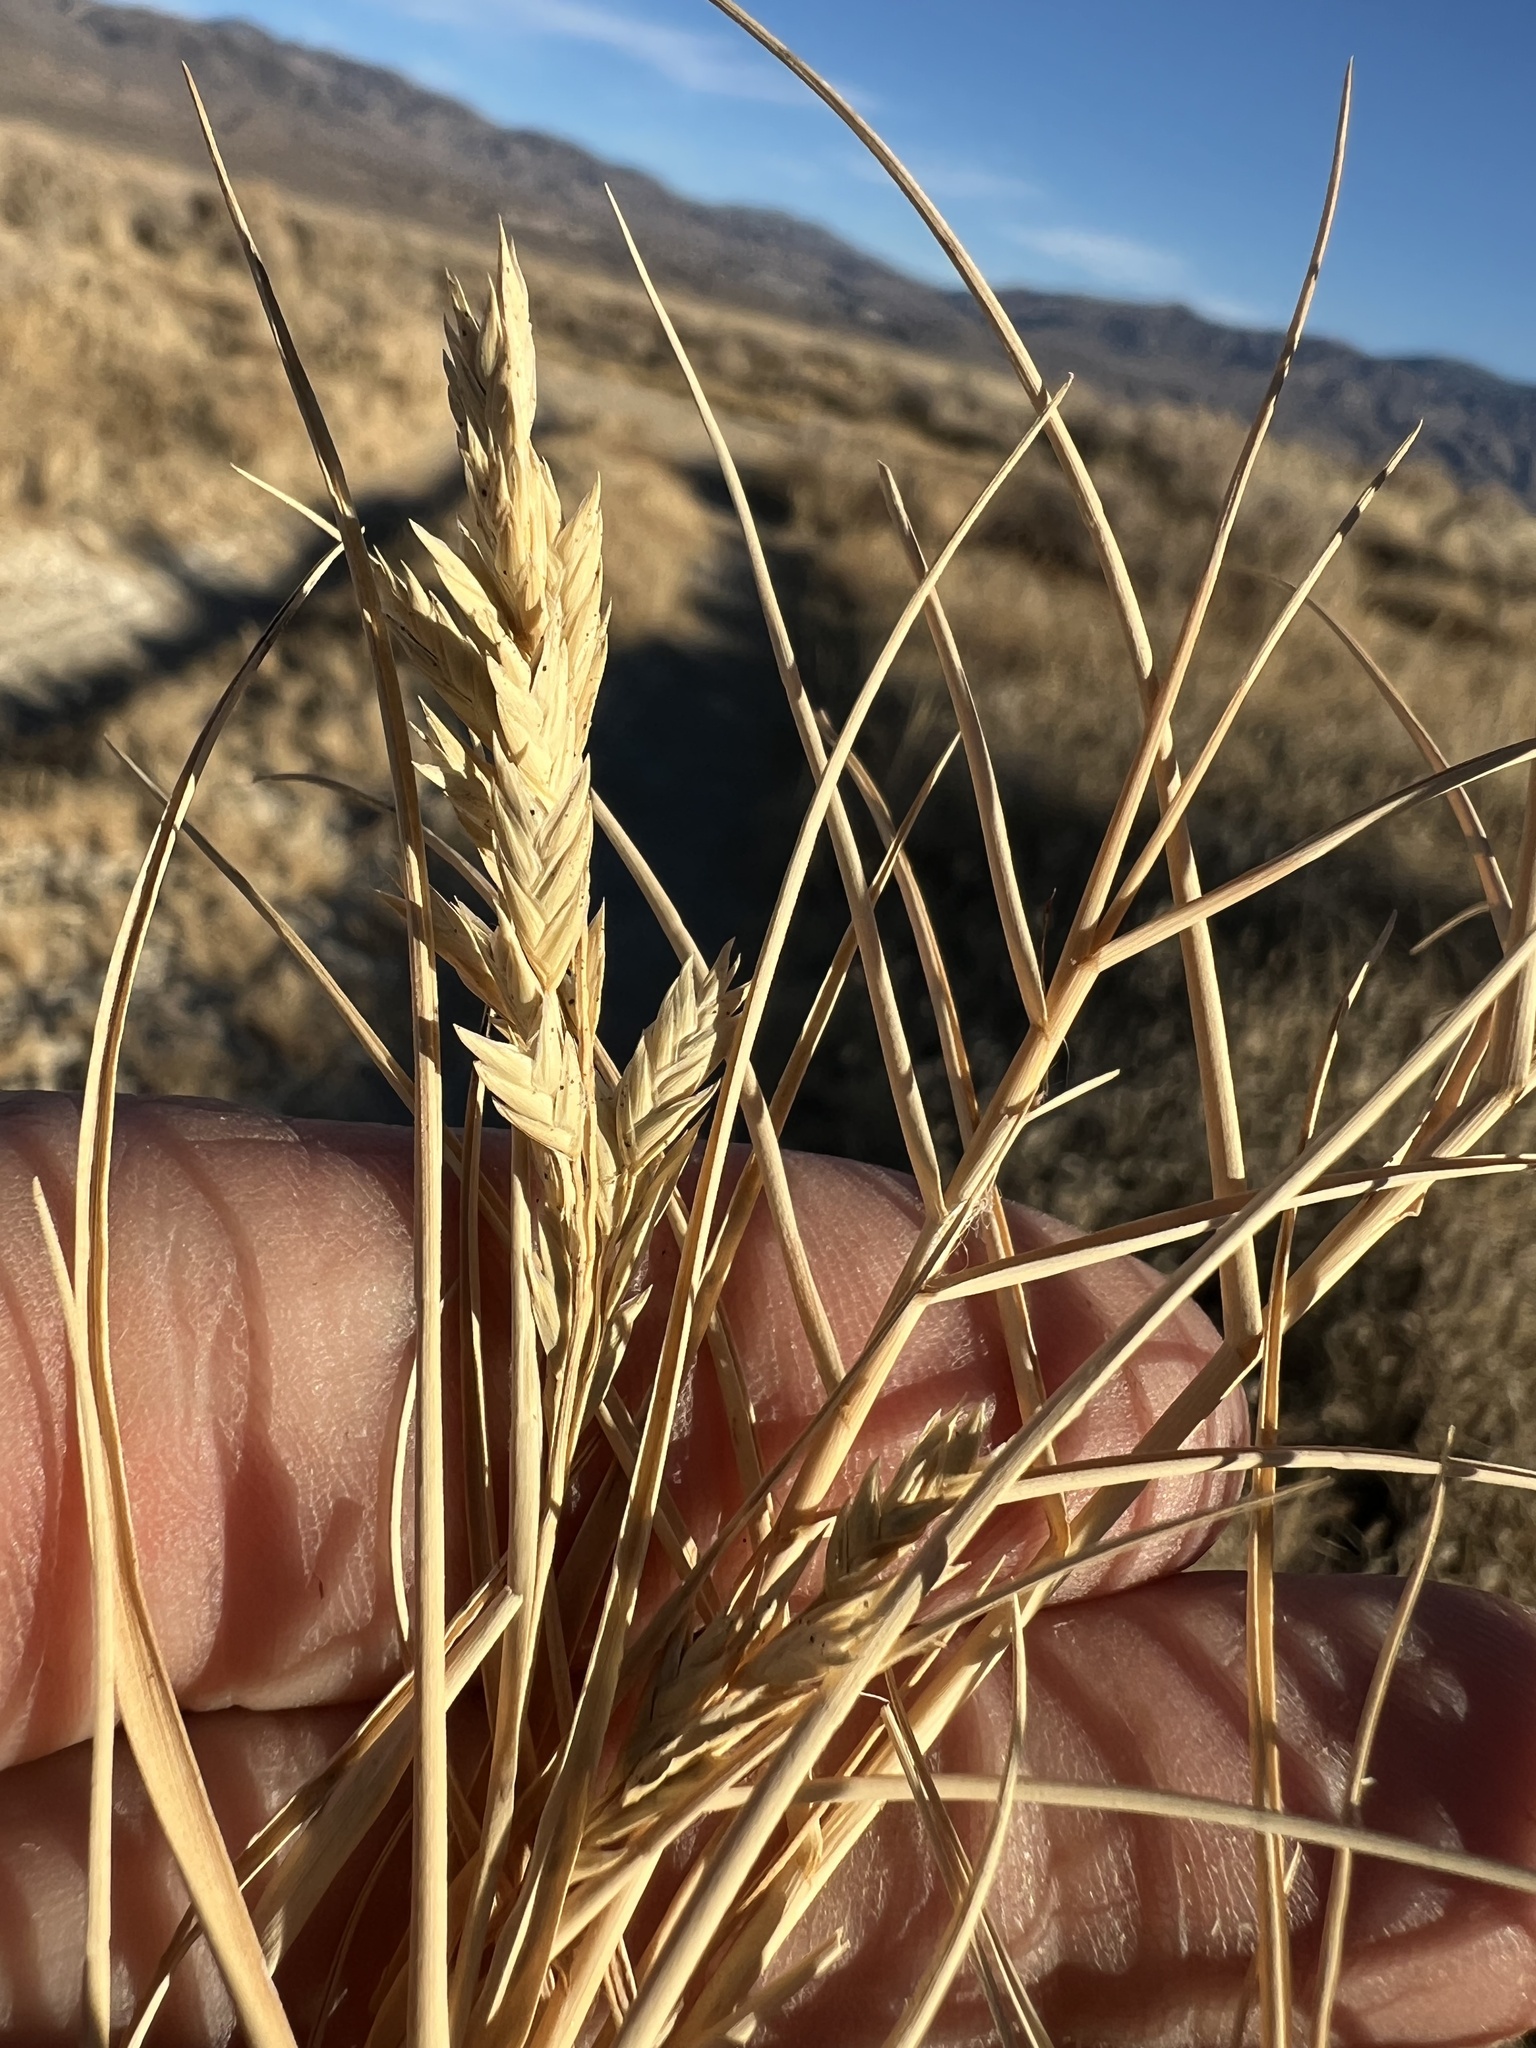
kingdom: Plantae
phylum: Tracheophyta
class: Liliopsida
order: Poales
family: Poaceae
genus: Distichlis
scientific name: Distichlis spicata
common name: Saltgrass
